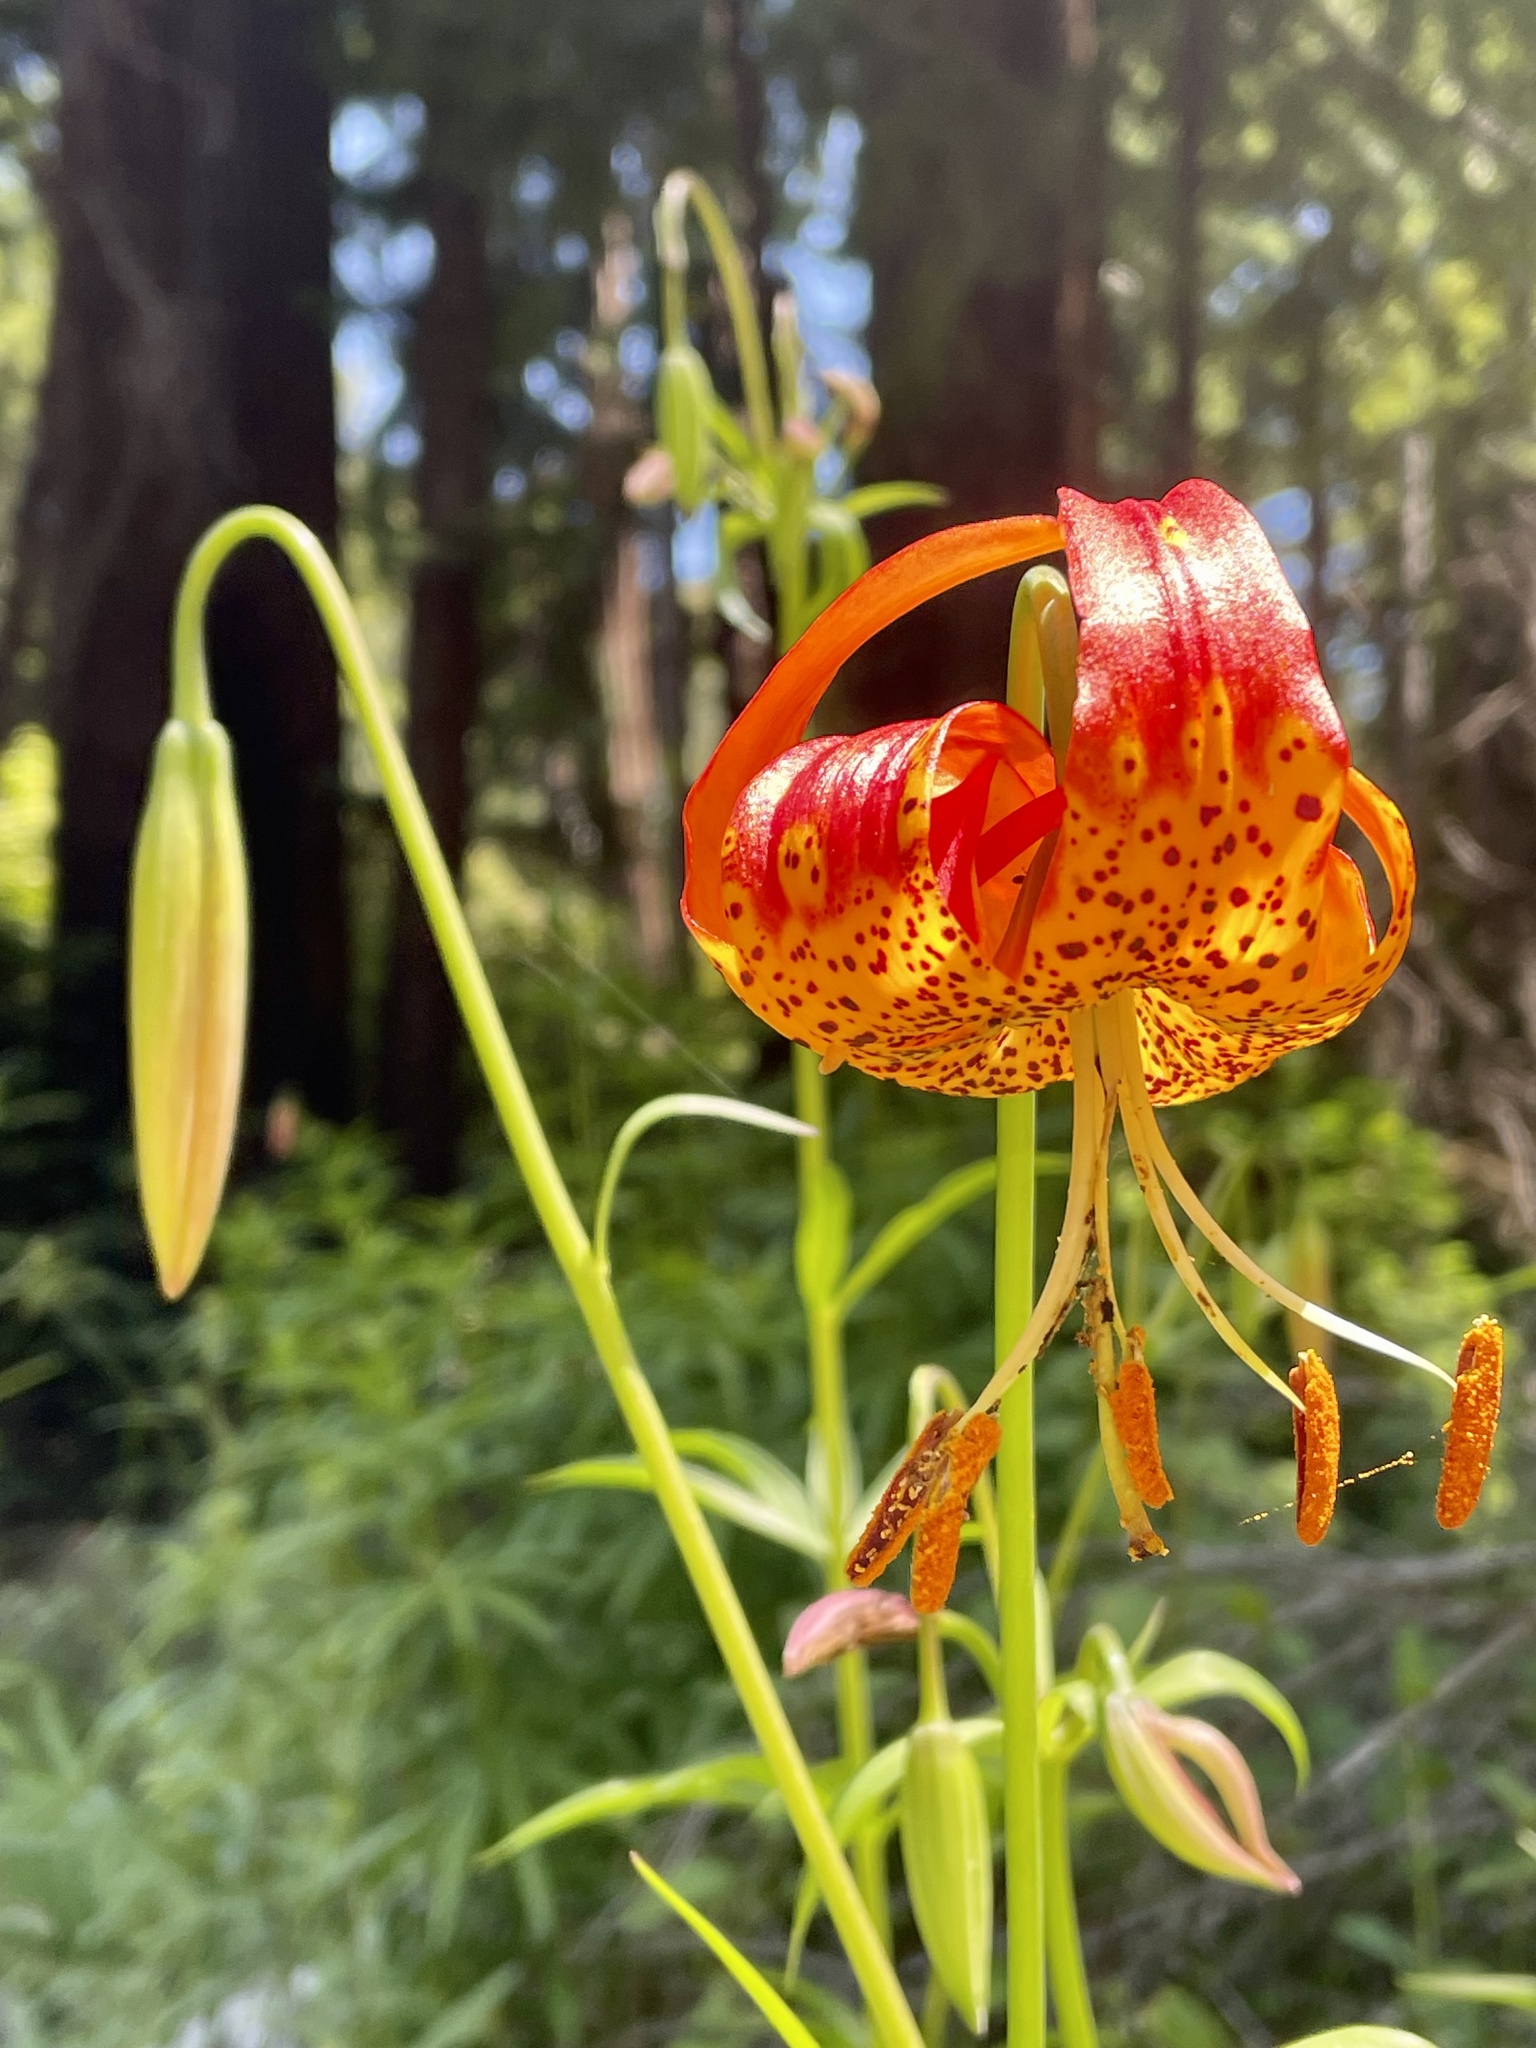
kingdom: Plantae
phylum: Tracheophyta
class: Liliopsida
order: Liliales
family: Liliaceae
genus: Lilium
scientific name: Lilium pardalinum
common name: Panther lily
